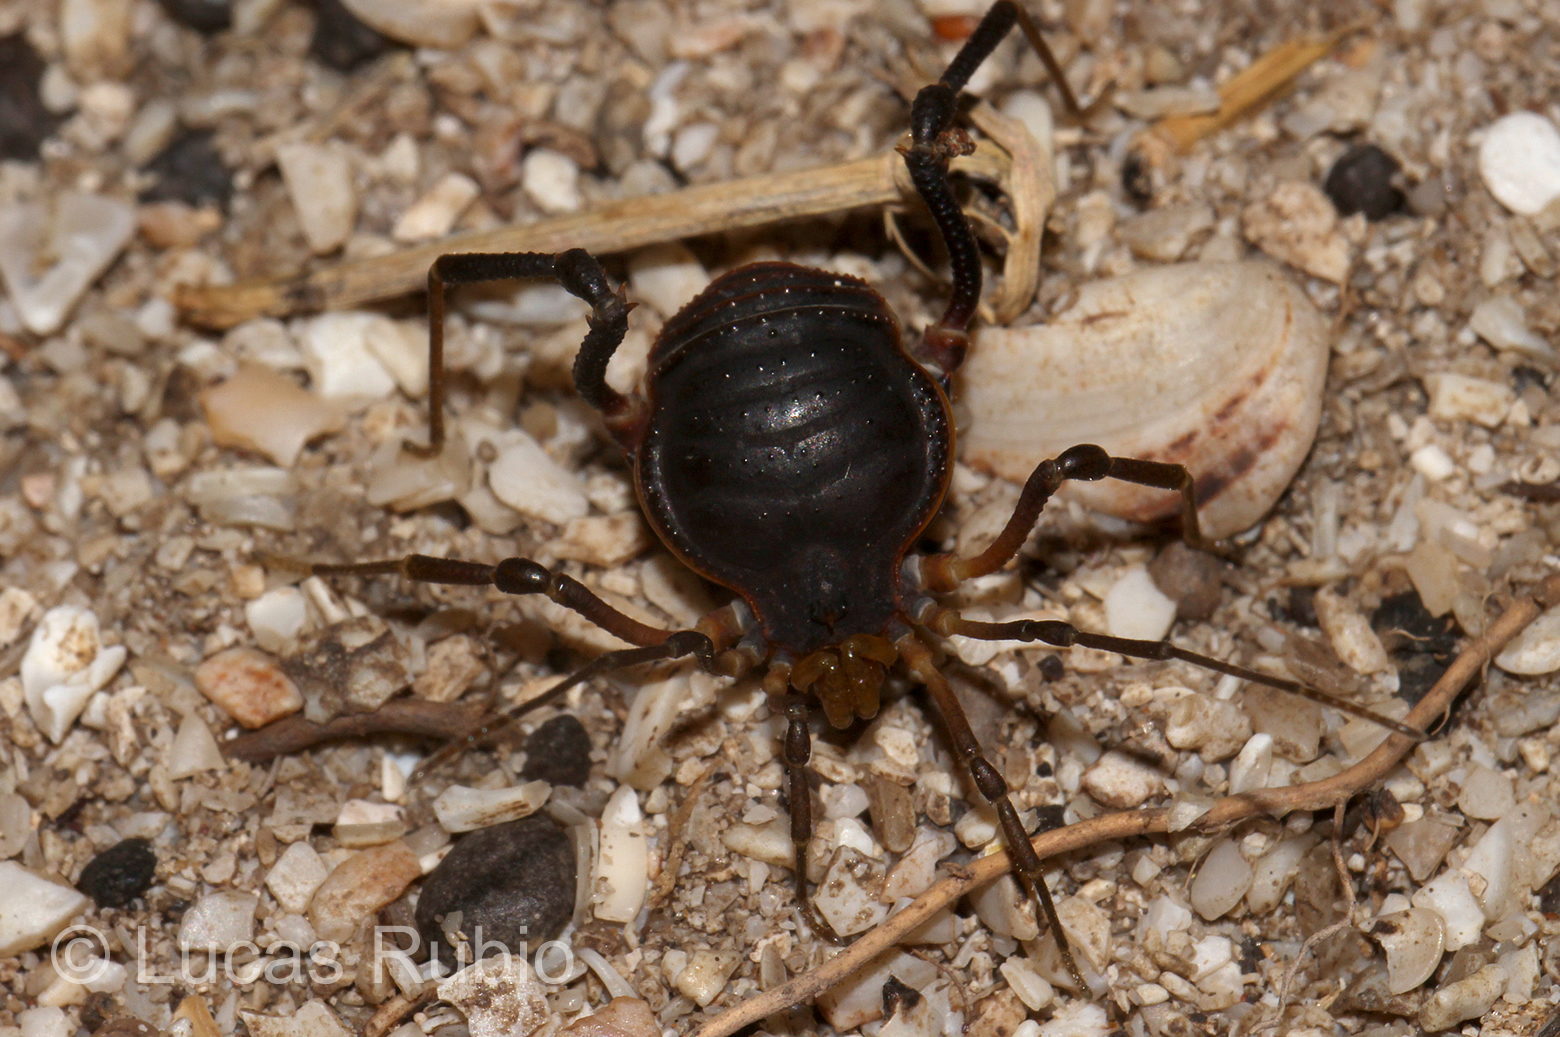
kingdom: Animalia
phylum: Arthropoda
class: Arachnida
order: Opiliones
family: Gonyleptidae
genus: Acanthopachylus
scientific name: Acanthopachylus robustus
